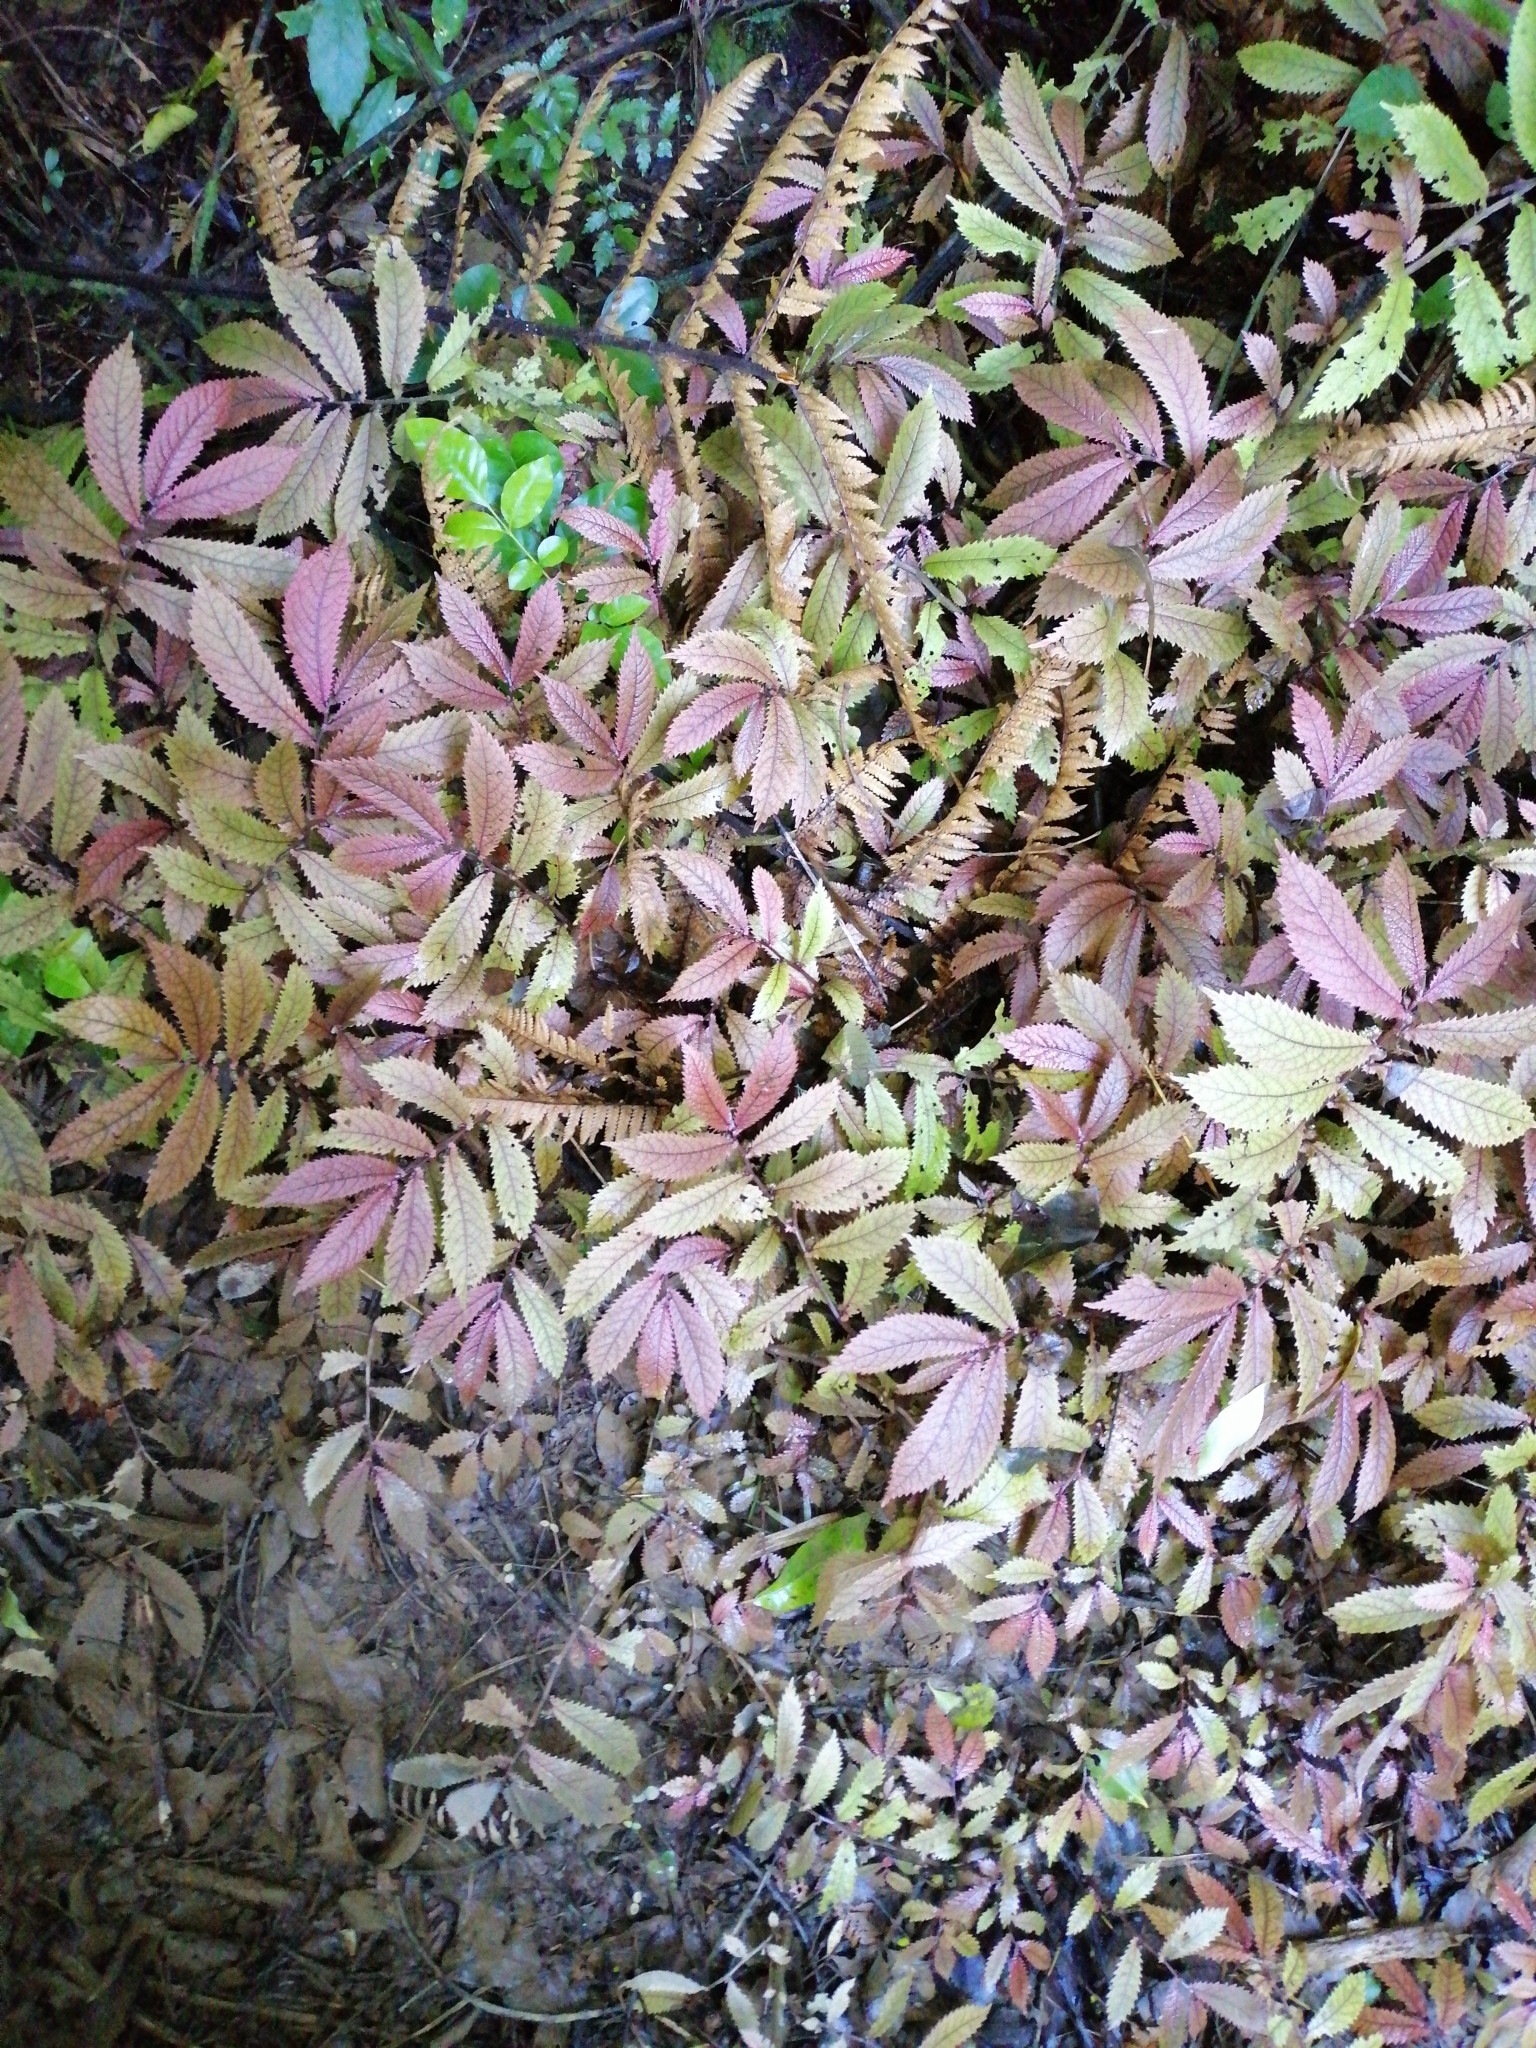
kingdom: Plantae
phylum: Tracheophyta
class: Magnoliopsida
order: Rosales
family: Urticaceae
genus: Elatostema
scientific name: Elatostema rugosum
